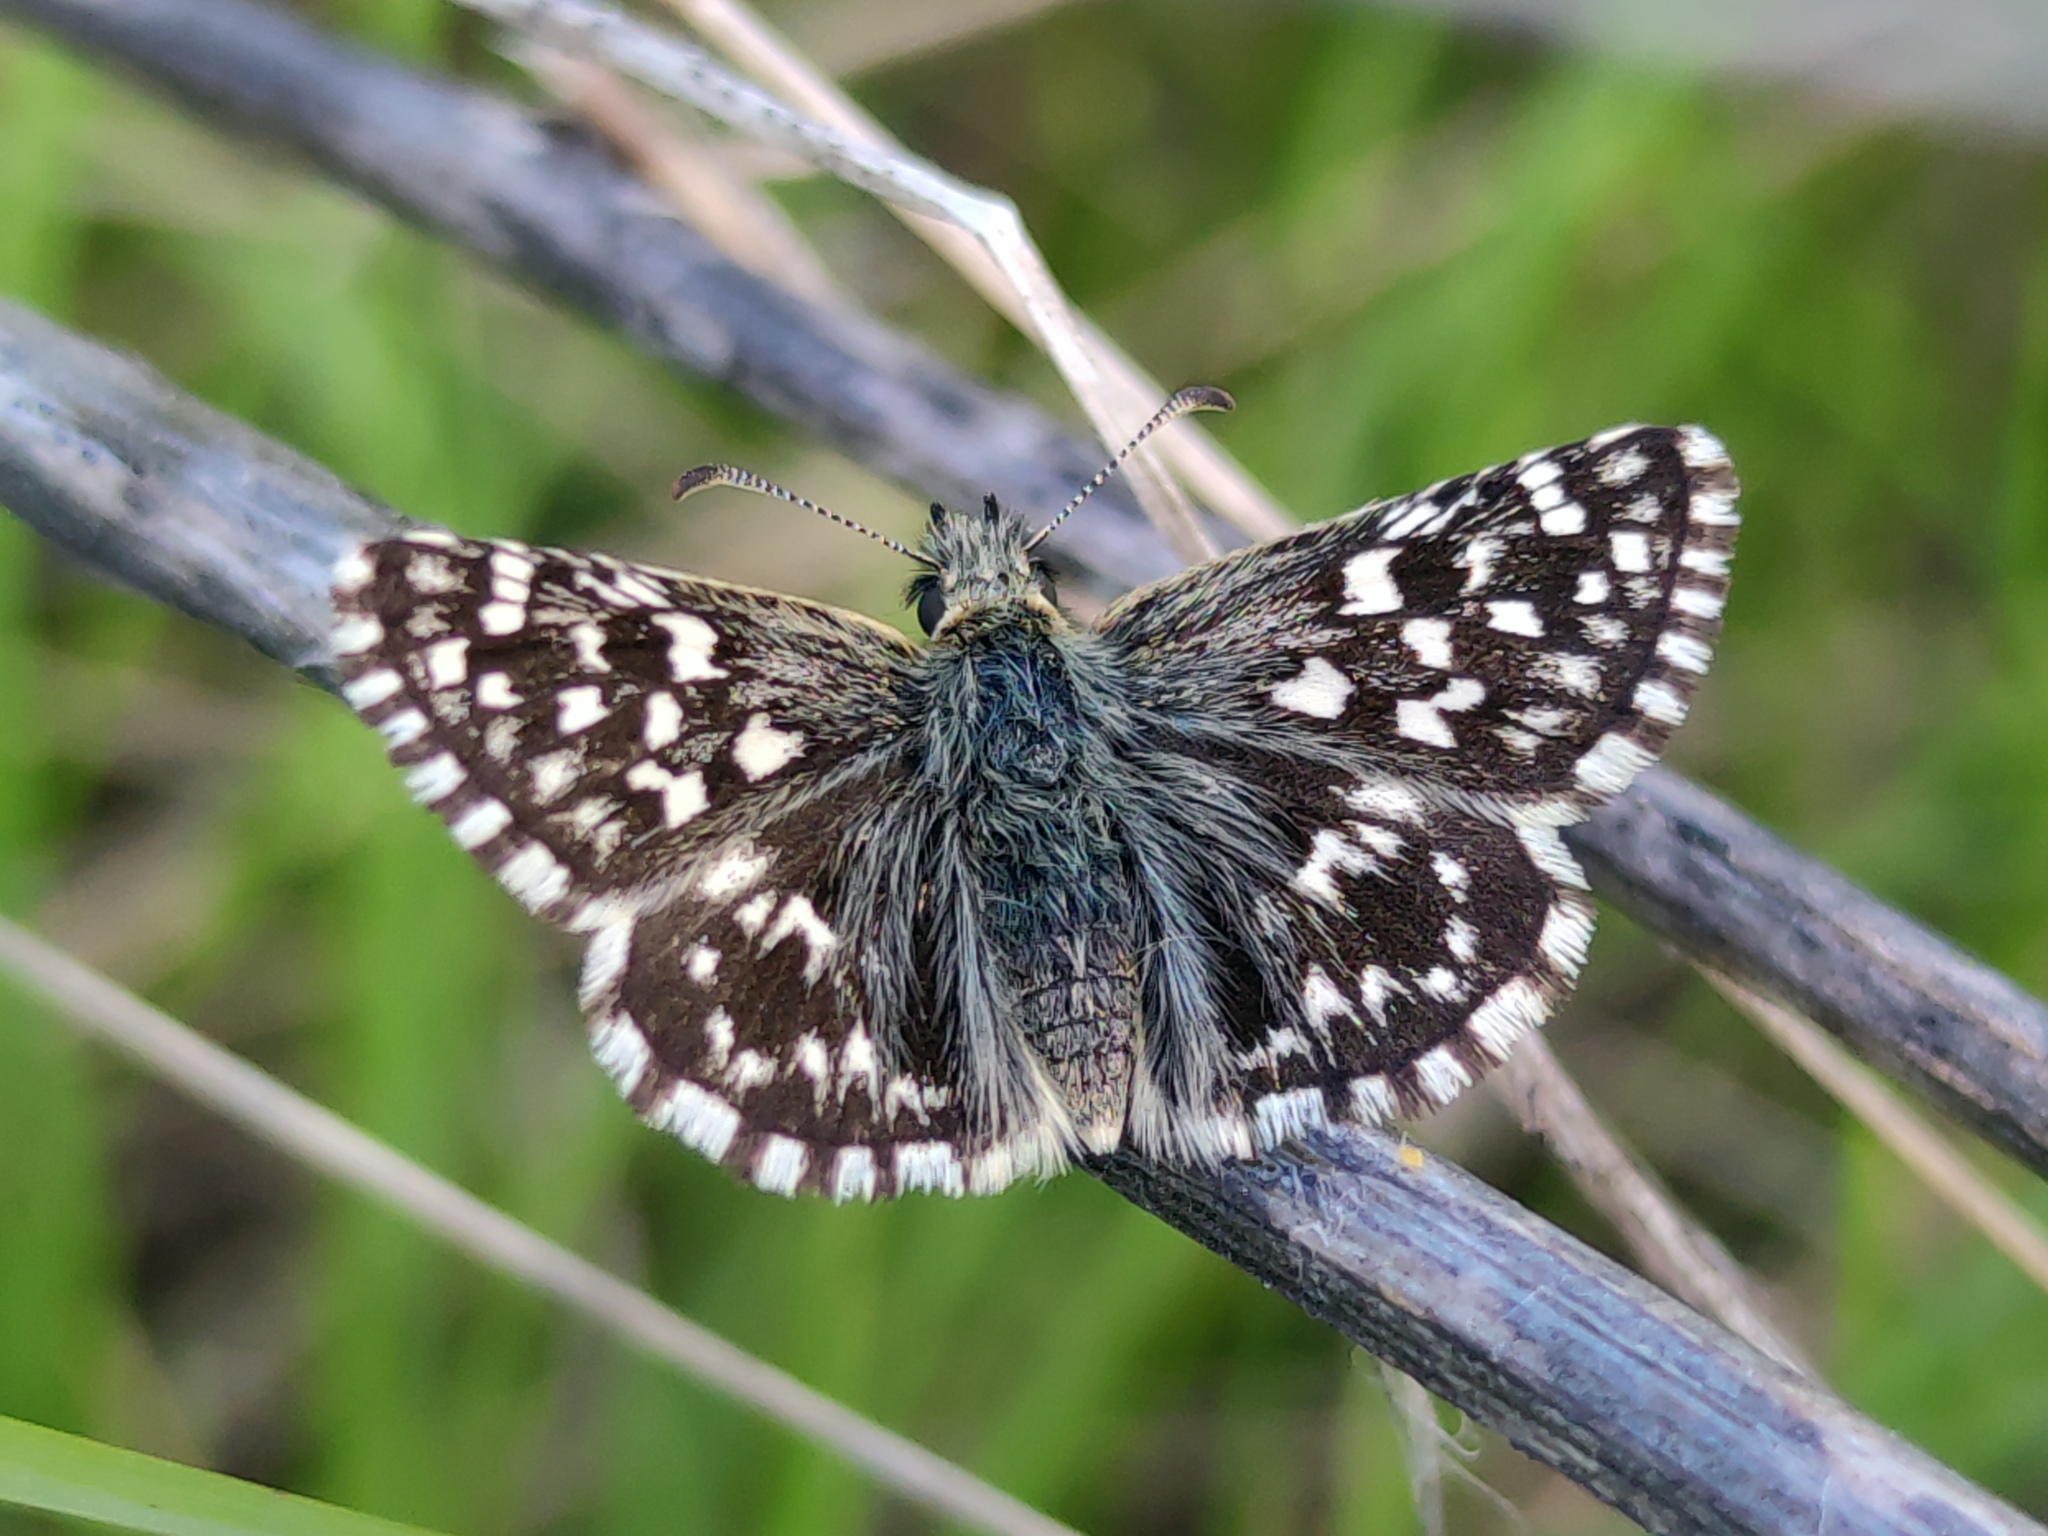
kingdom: Animalia
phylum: Arthropoda
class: Insecta
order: Lepidoptera
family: Hesperiidae
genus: Pyrgus
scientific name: Pyrgus malvae
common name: Grizzled skipper
